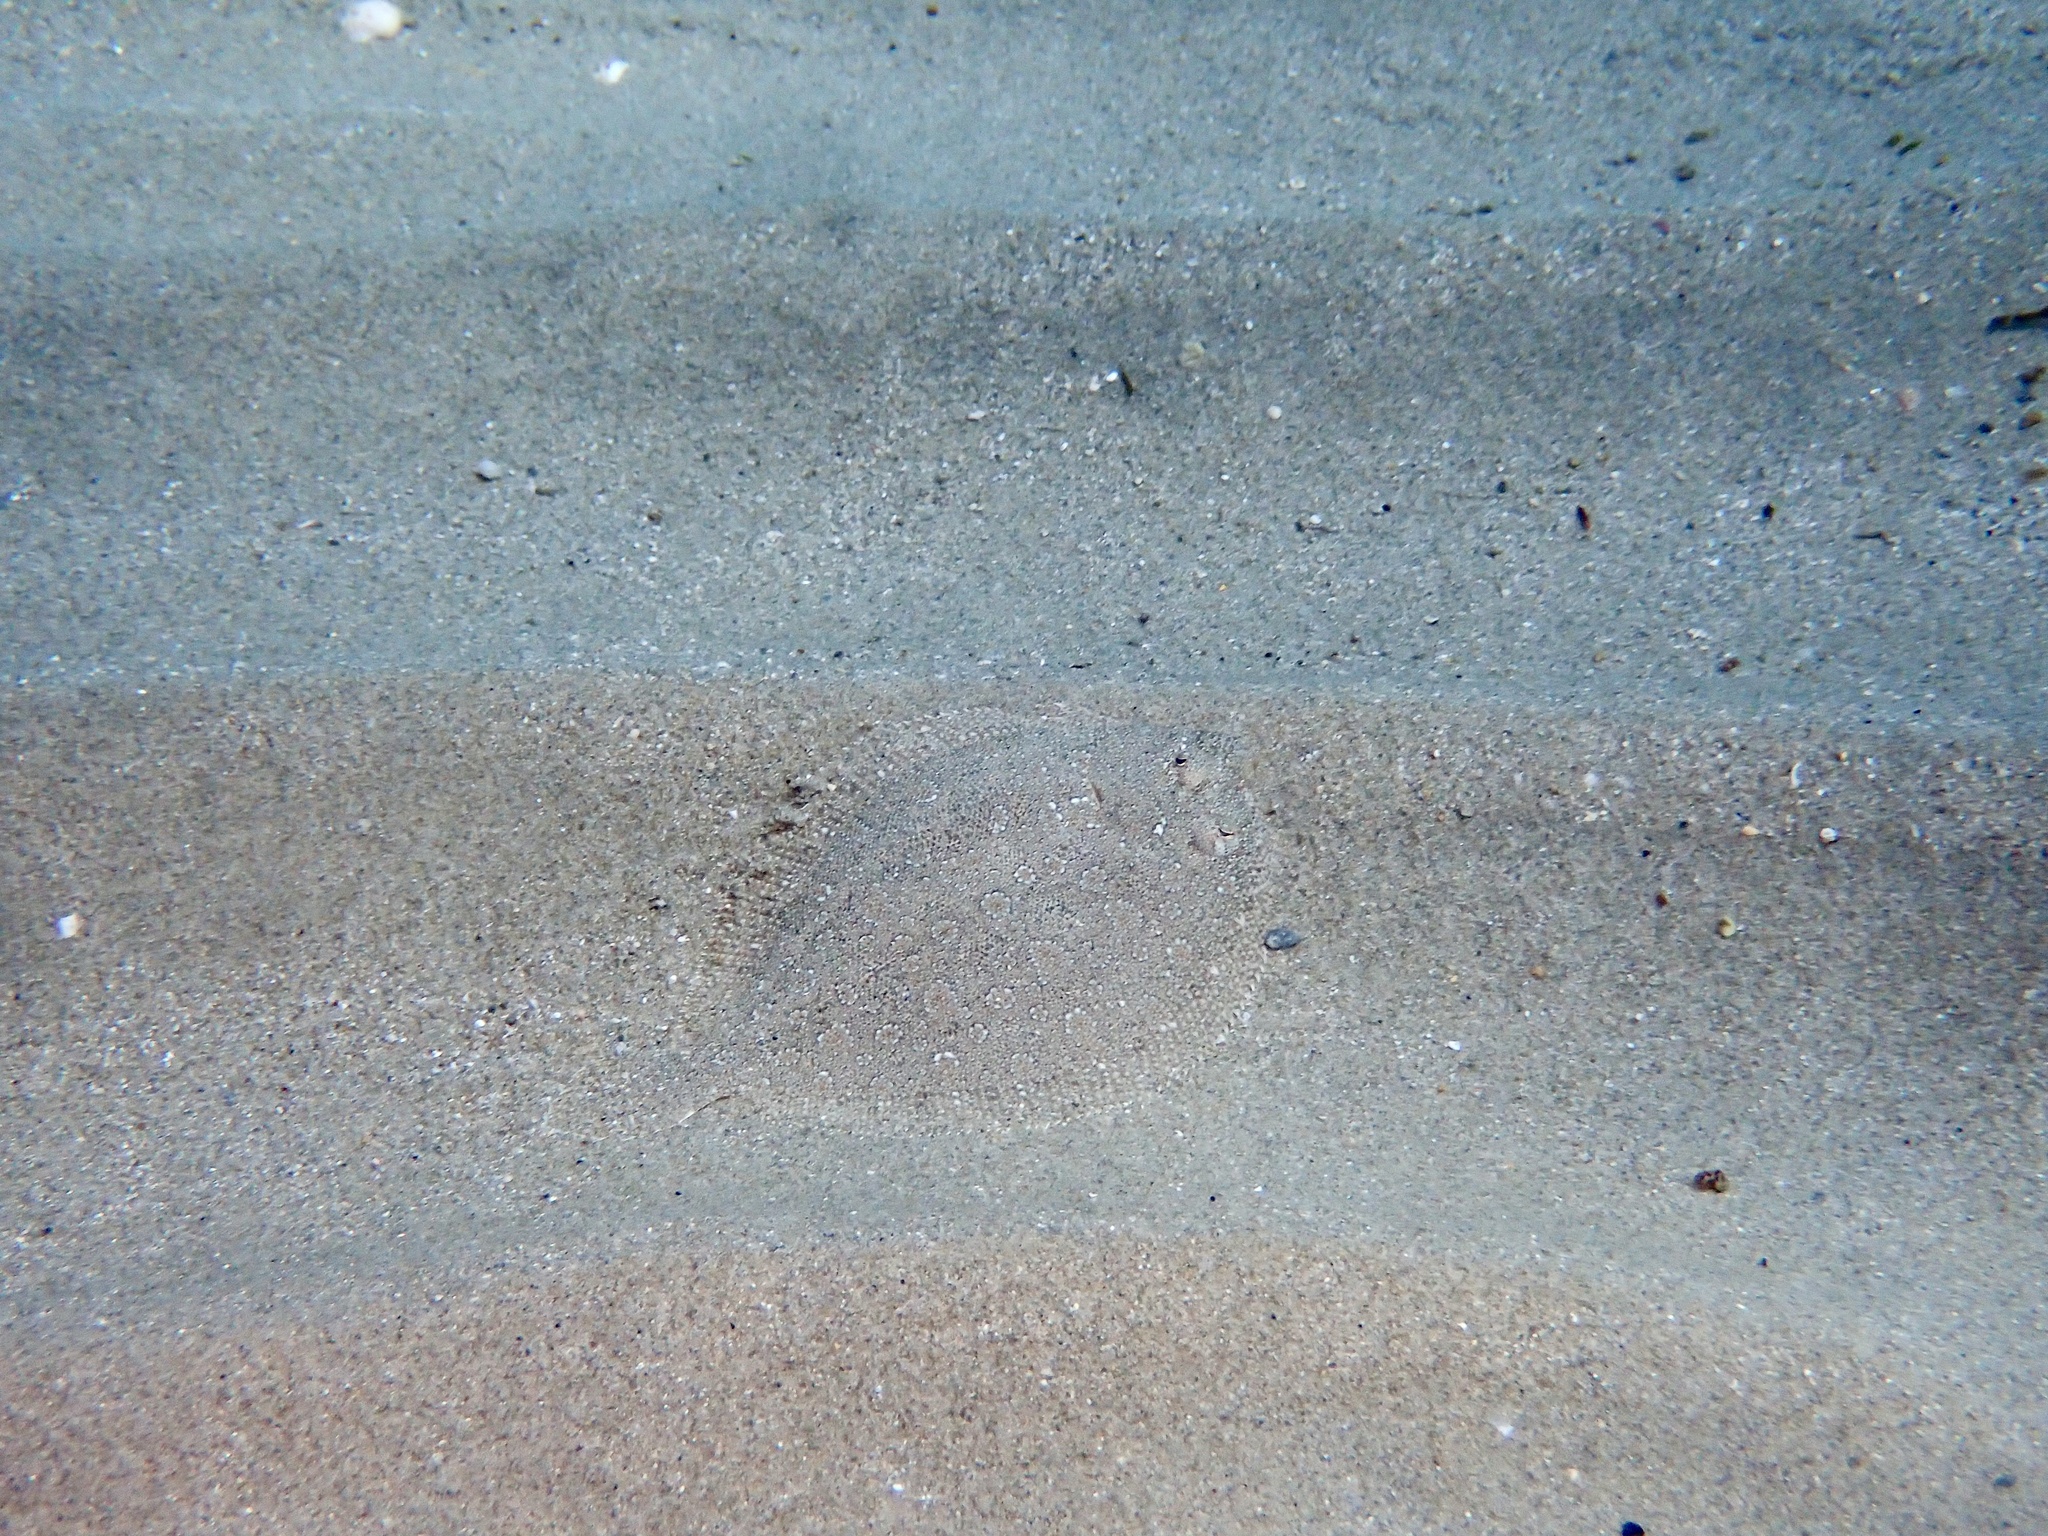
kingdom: Animalia
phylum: Chordata
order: Pleuronectiformes
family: Bothidae
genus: Bothus
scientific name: Bothus podas
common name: Wide-eyed flounder
